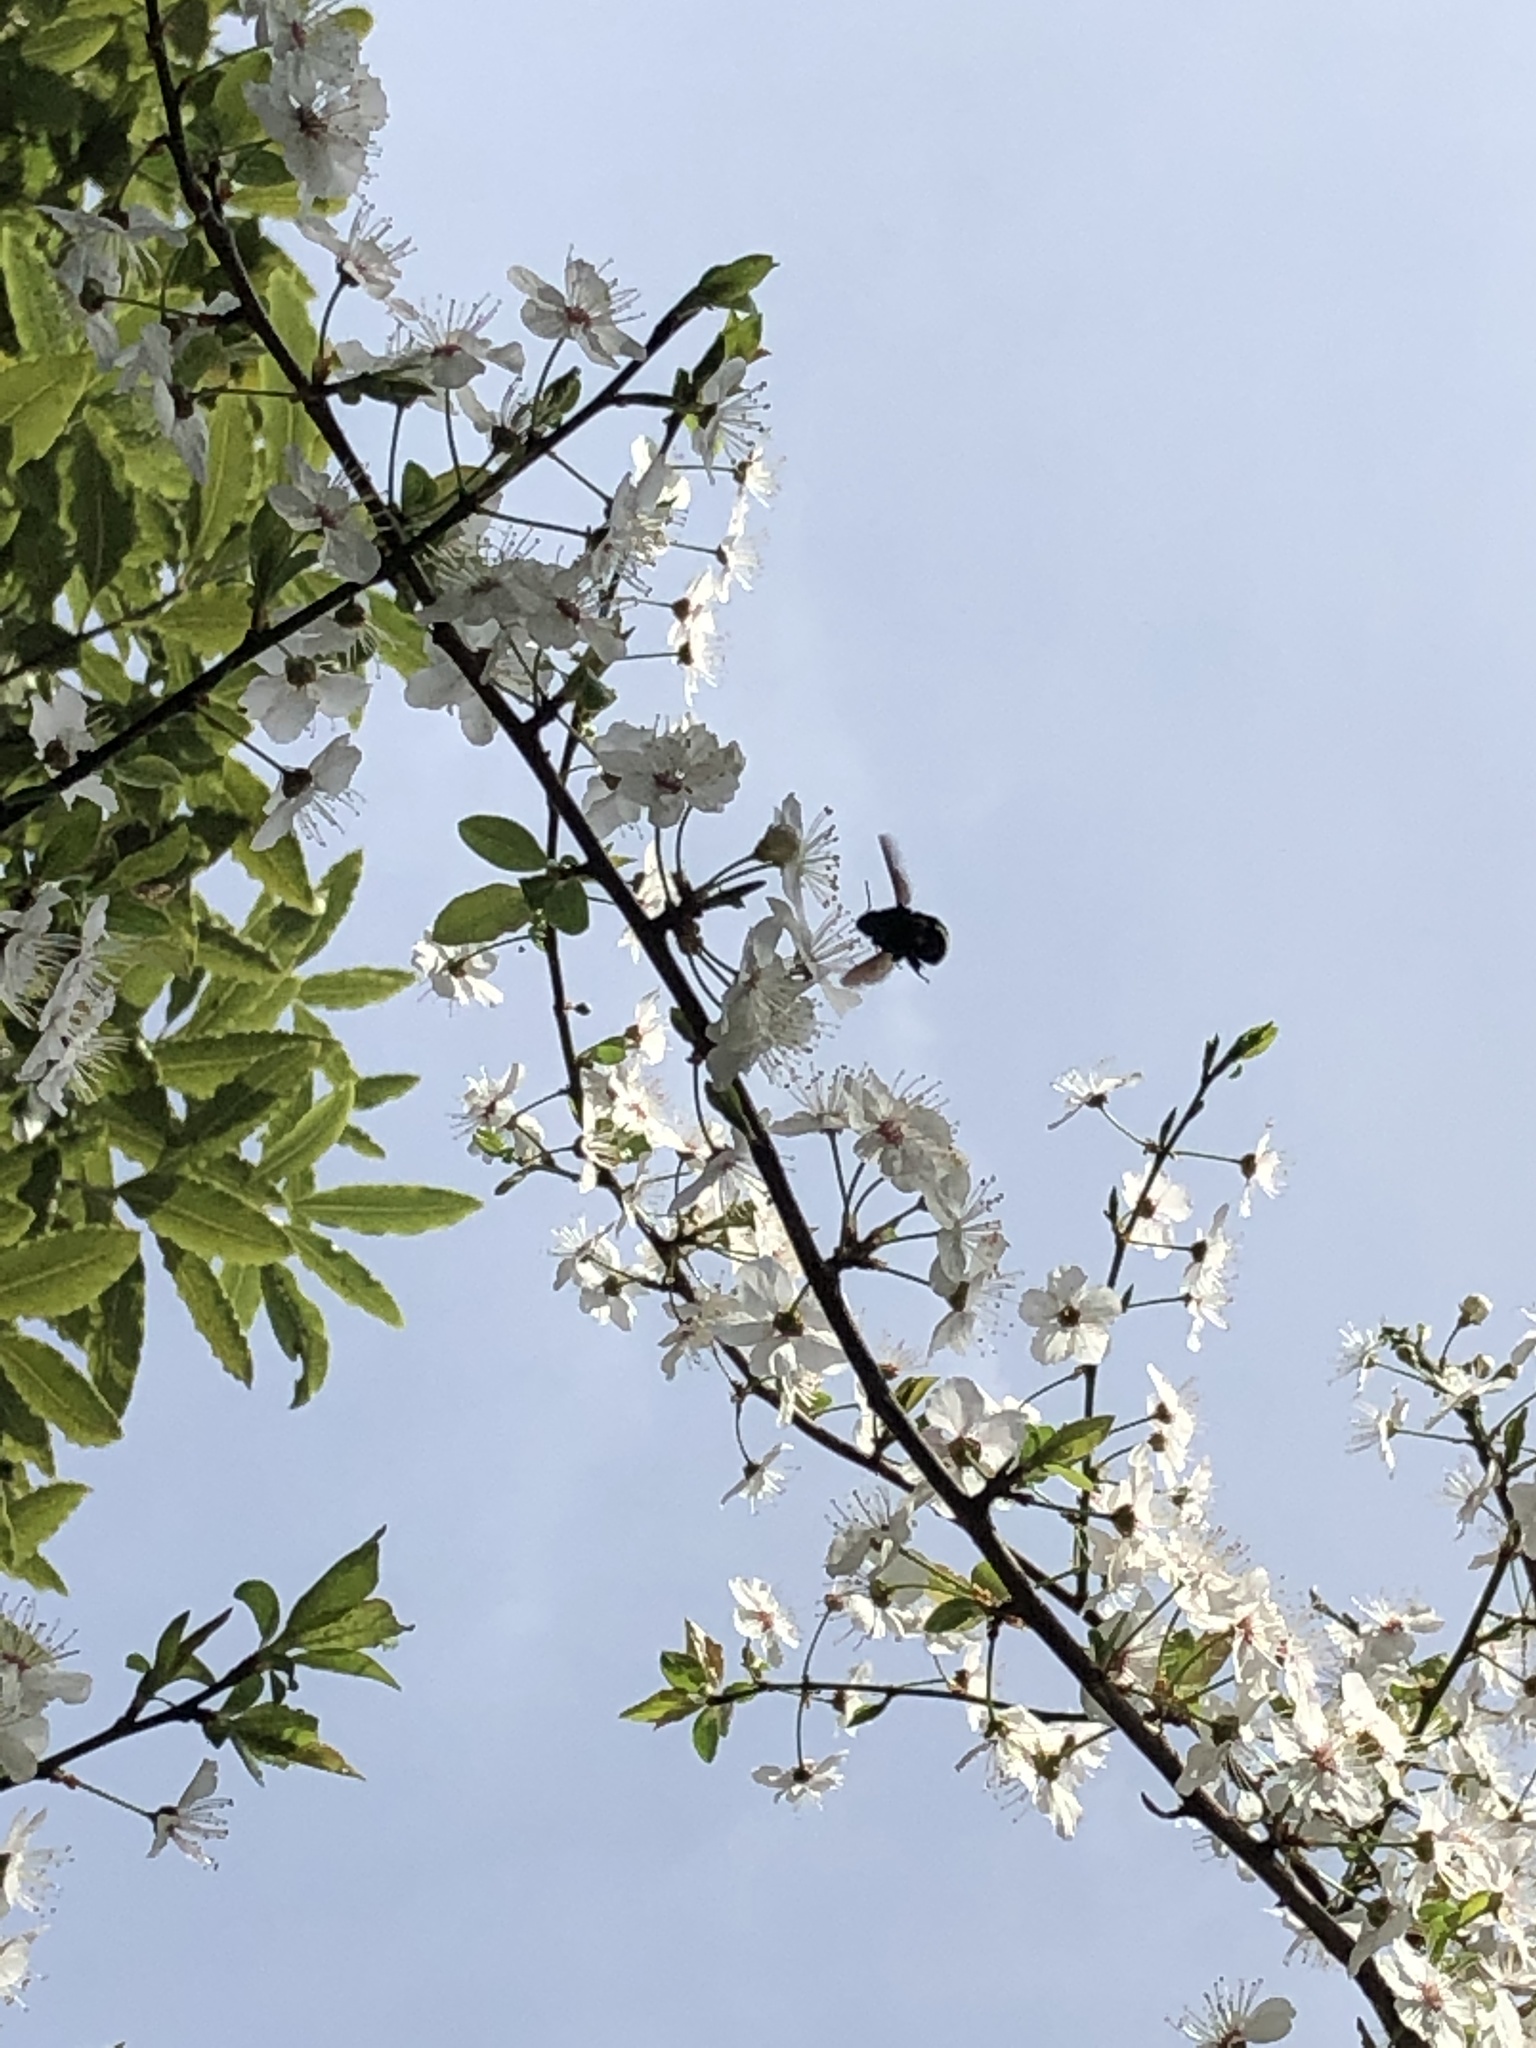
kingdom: Animalia
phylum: Arthropoda
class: Insecta
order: Hymenoptera
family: Apidae
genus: Bombus
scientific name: Bombus
